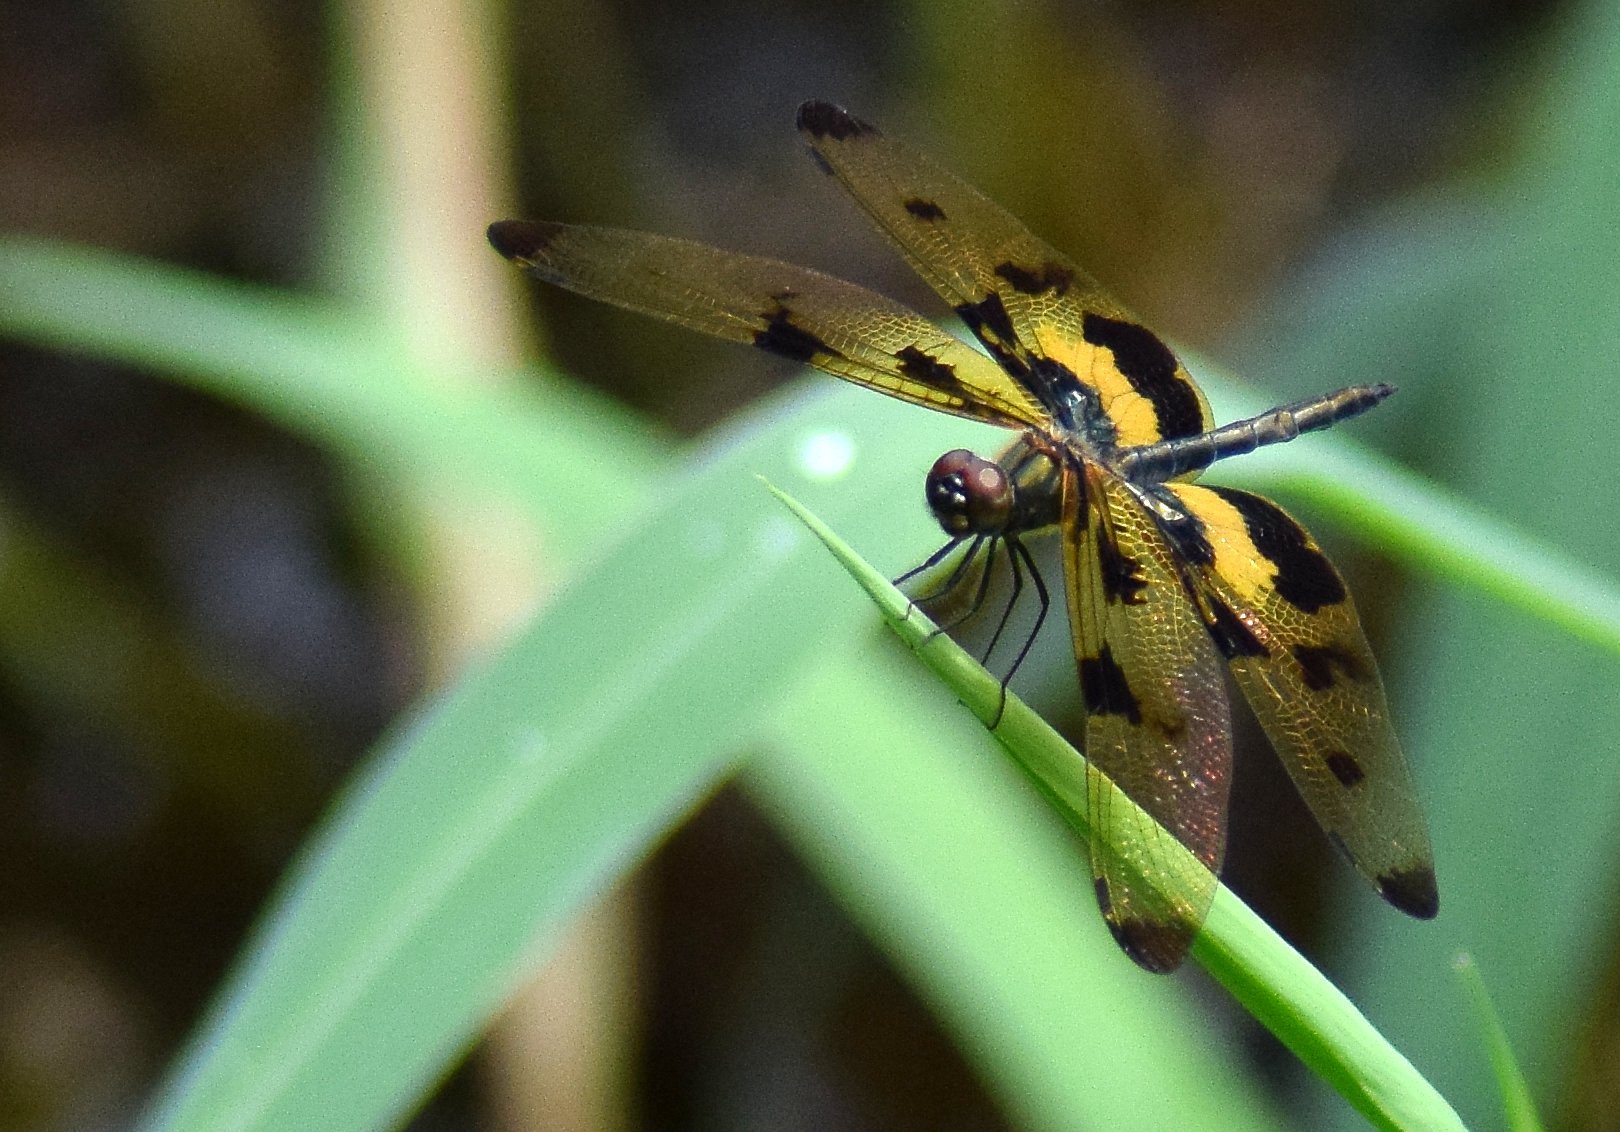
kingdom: Animalia
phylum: Arthropoda
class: Insecta
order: Odonata
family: Libellulidae
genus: Rhyothemis
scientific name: Rhyothemis variegata
